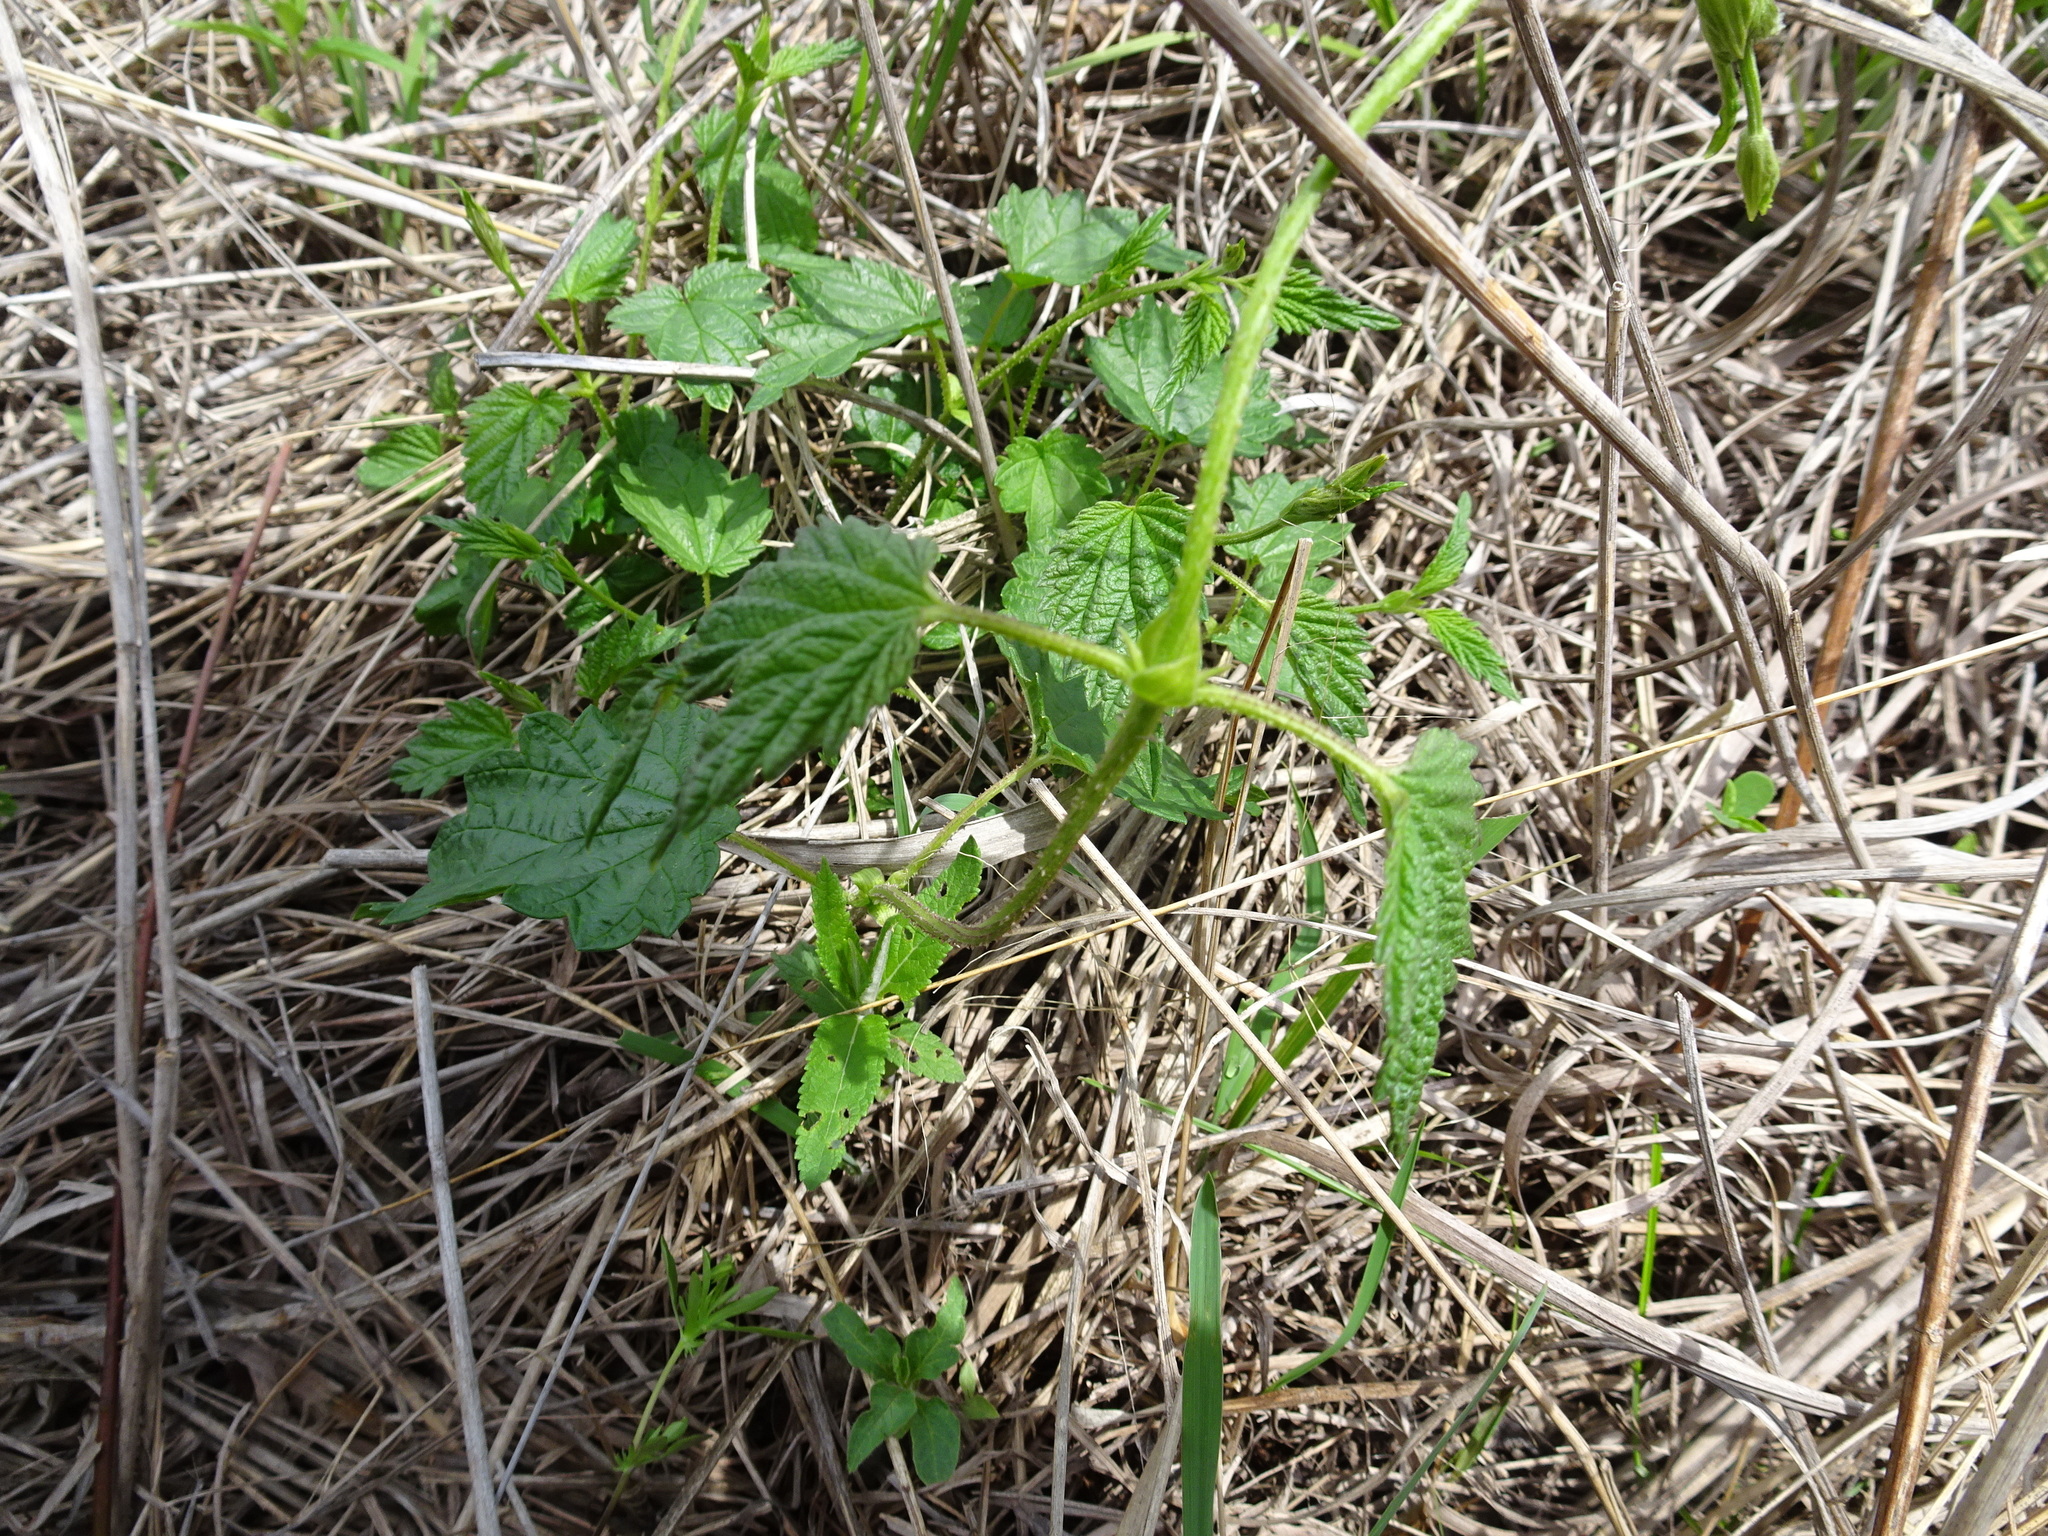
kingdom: Plantae
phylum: Tracheophyta
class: Magnoliopsida
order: Rosales
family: Cannabaceae
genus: Humulus
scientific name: Humulus lupulus
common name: Hop
